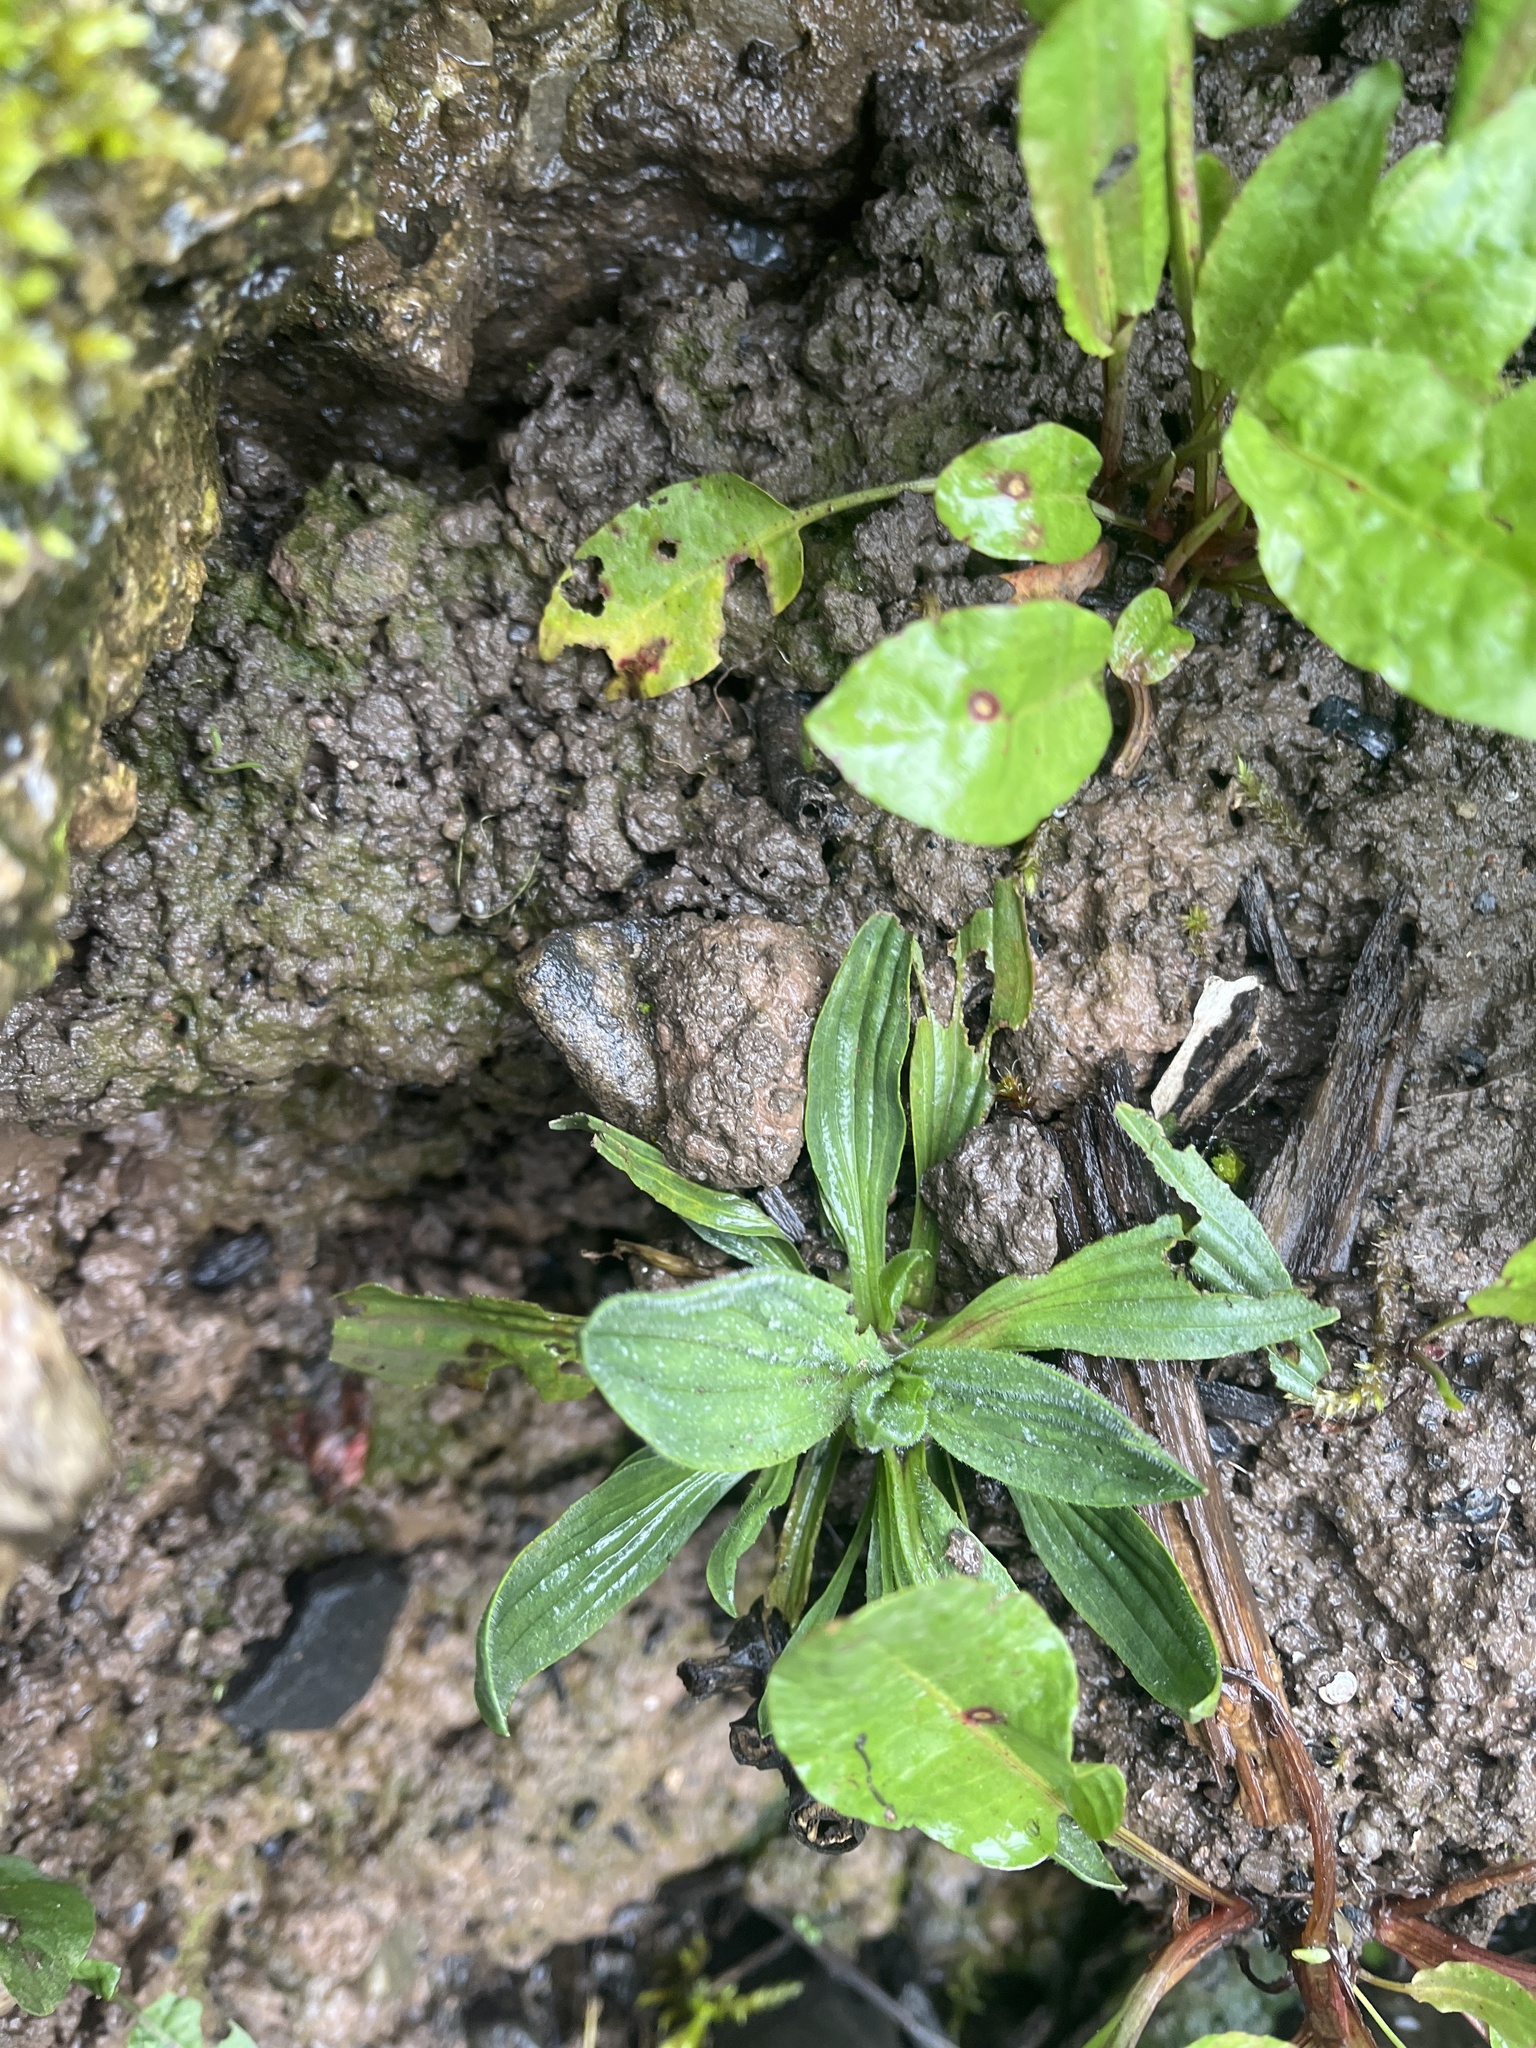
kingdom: Plantae
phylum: Tracheophyta
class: Magnoliopsida
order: Lamiales
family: Plantaginaceae
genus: Plantago
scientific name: Plantago lanceolata
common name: Ribwort plantain
